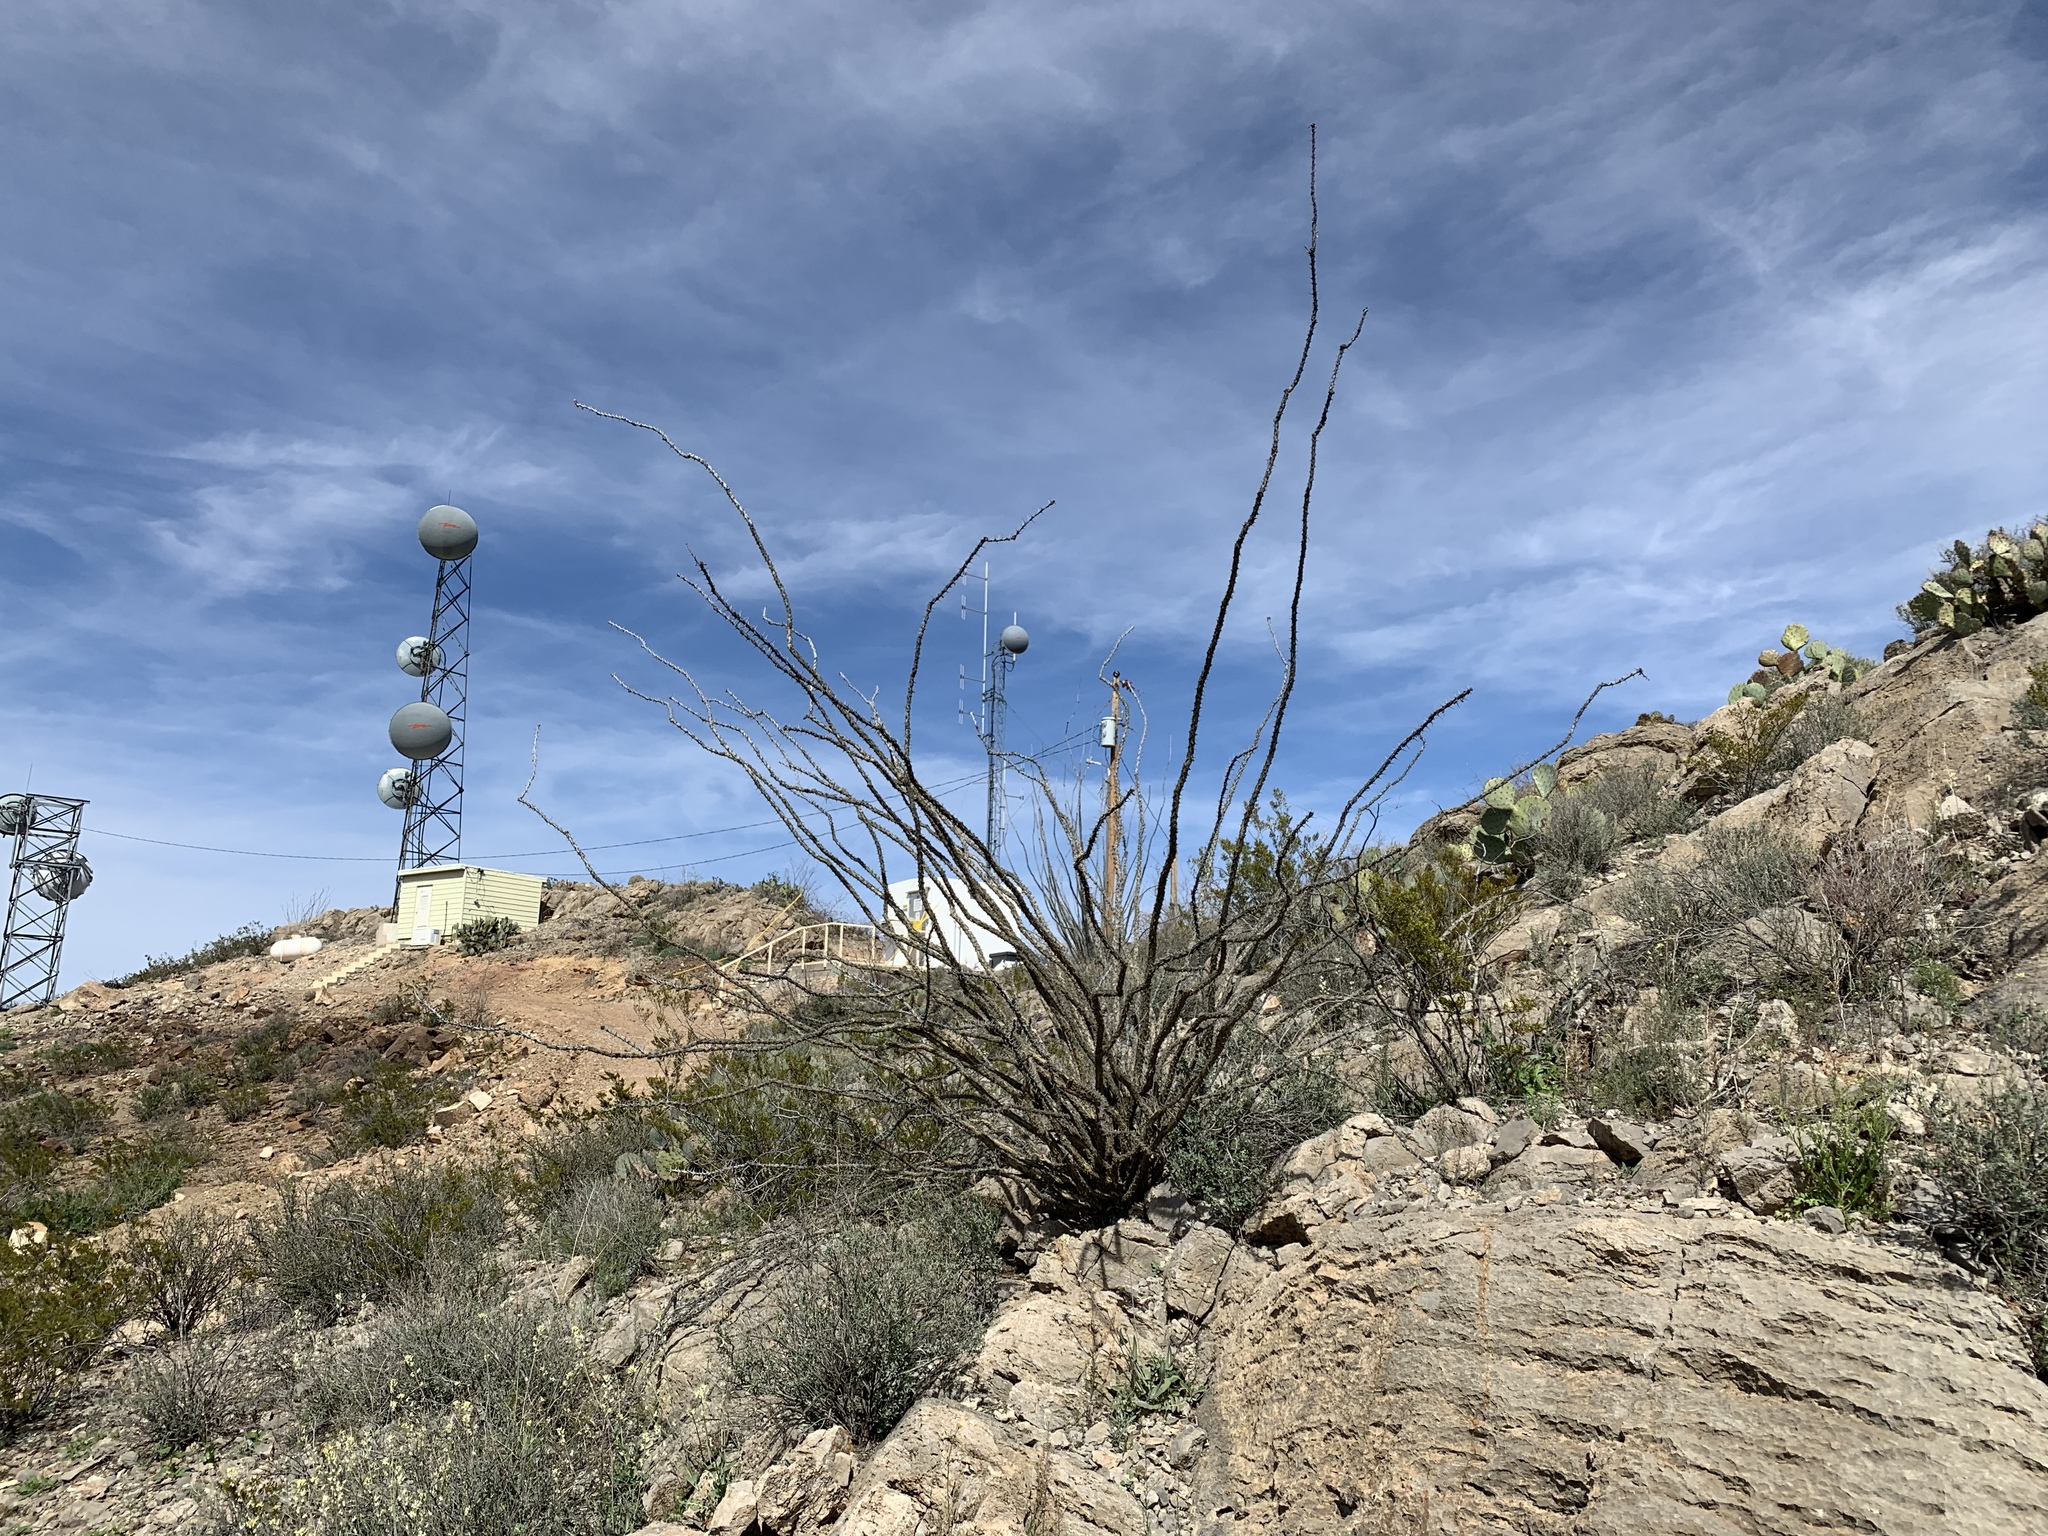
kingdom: Plantae
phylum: Tracheophyta
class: Magnoliopsida
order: Ericales
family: Fouquieriaceae
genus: Fouquieria
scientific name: Fouquieria splendens
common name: Vine-cactus
